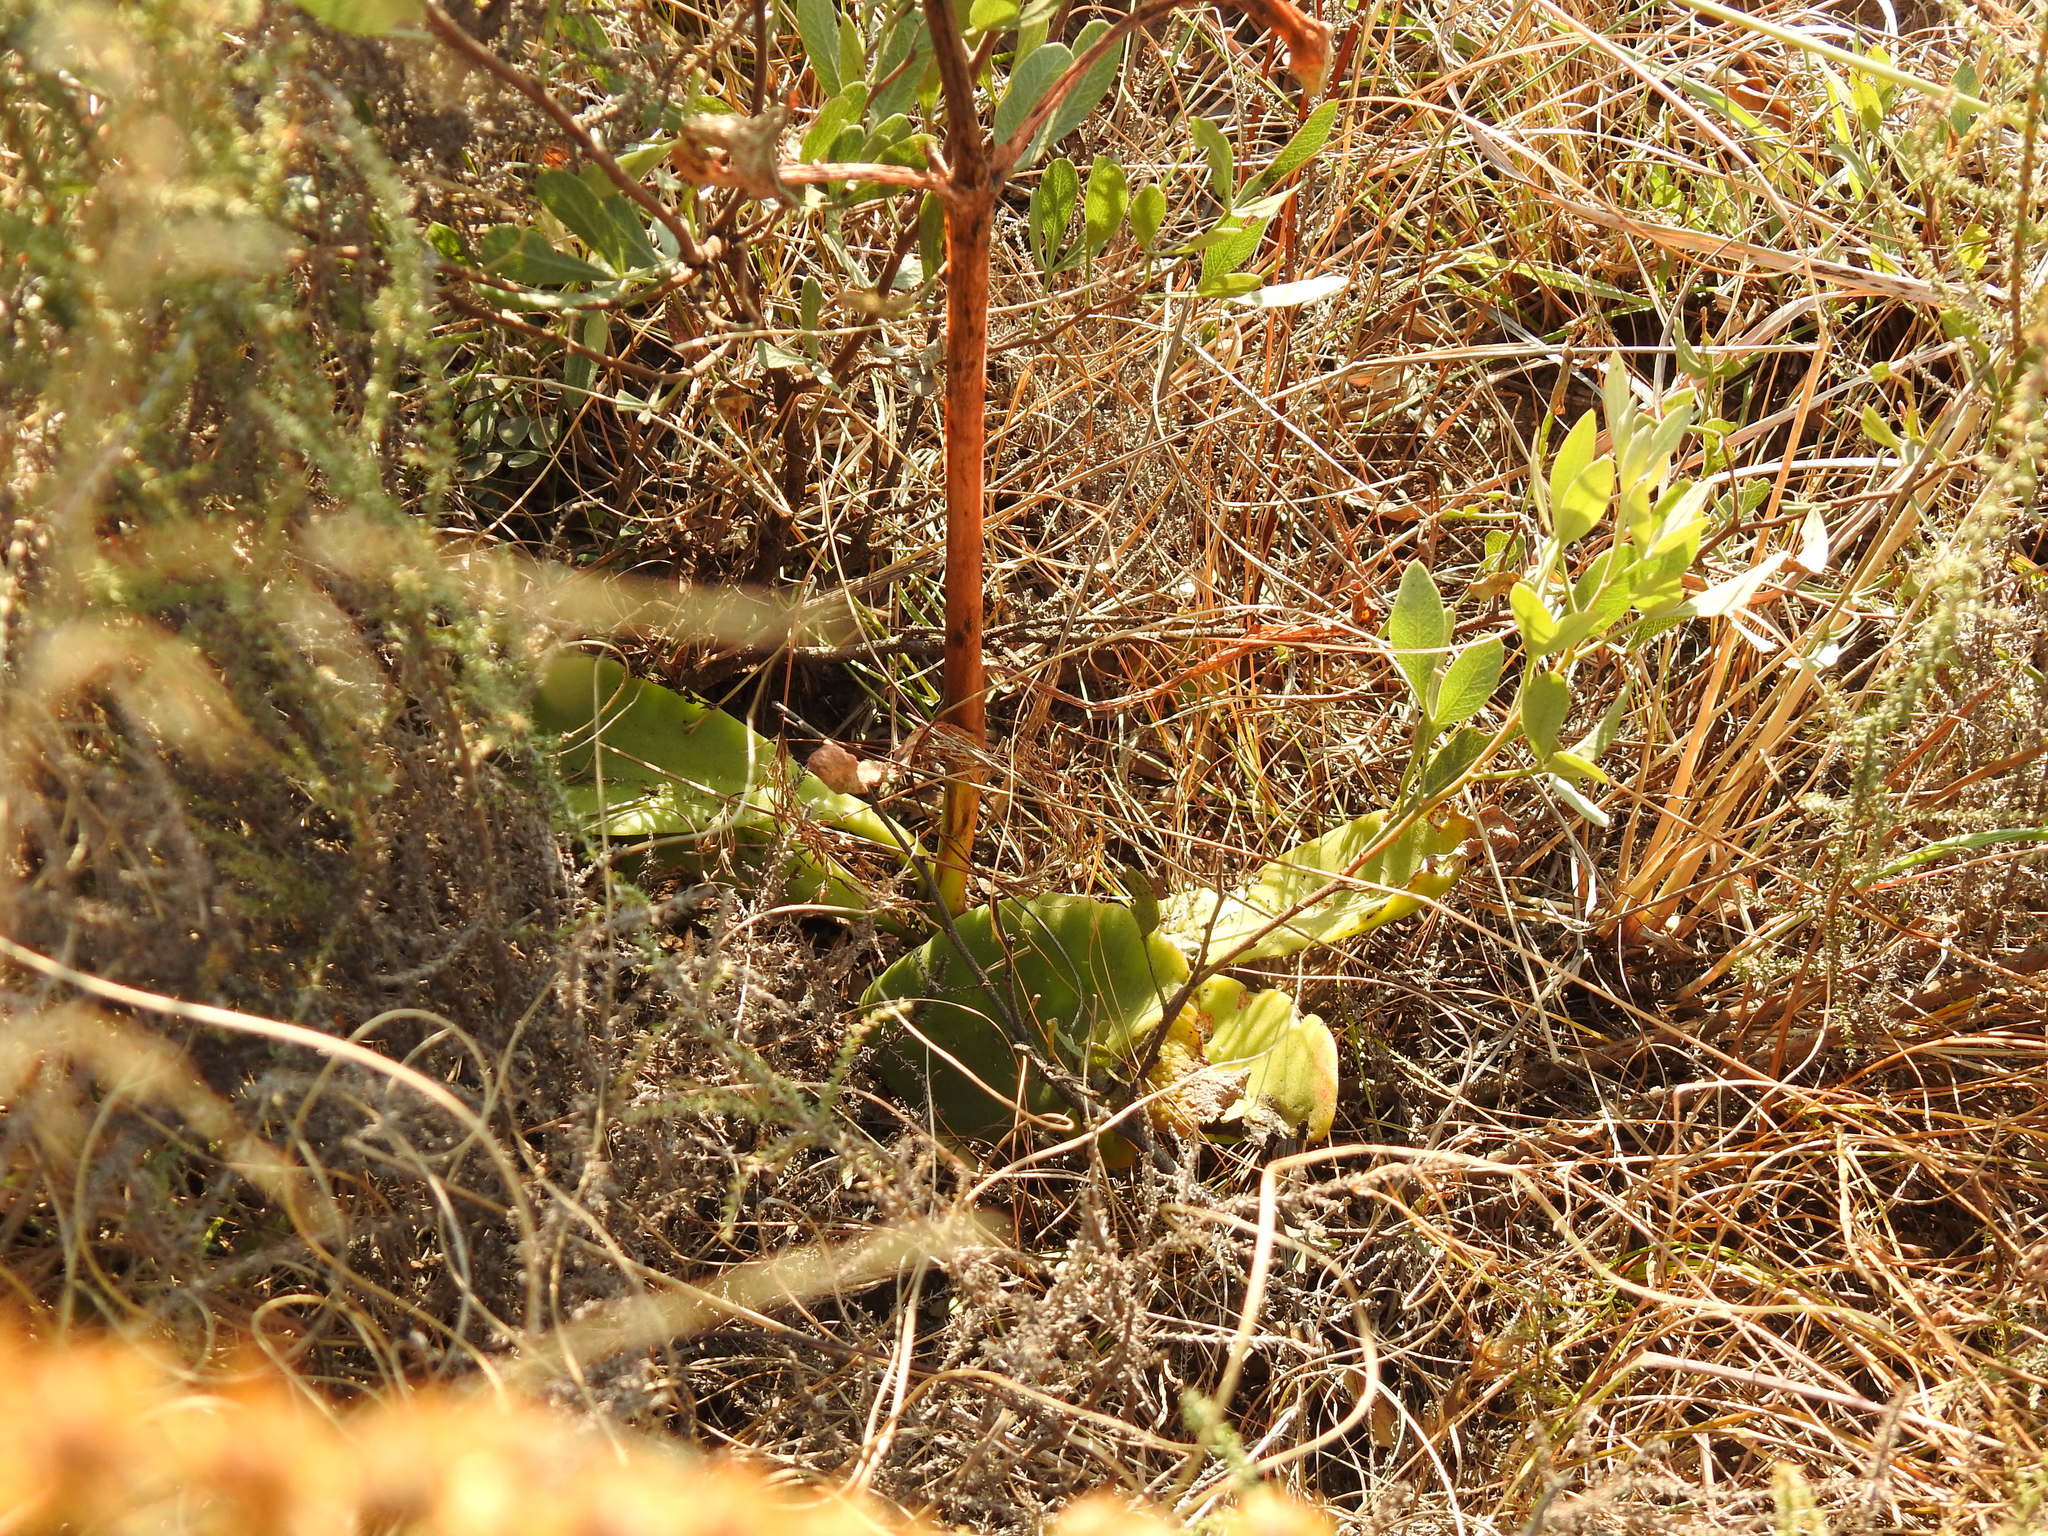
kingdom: Plantae
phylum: Tracheophyta
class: Magnoliopsida
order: Saxifragales
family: Crassulaceae
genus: Kalanchoe
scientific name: Kalanchoe paniculata
